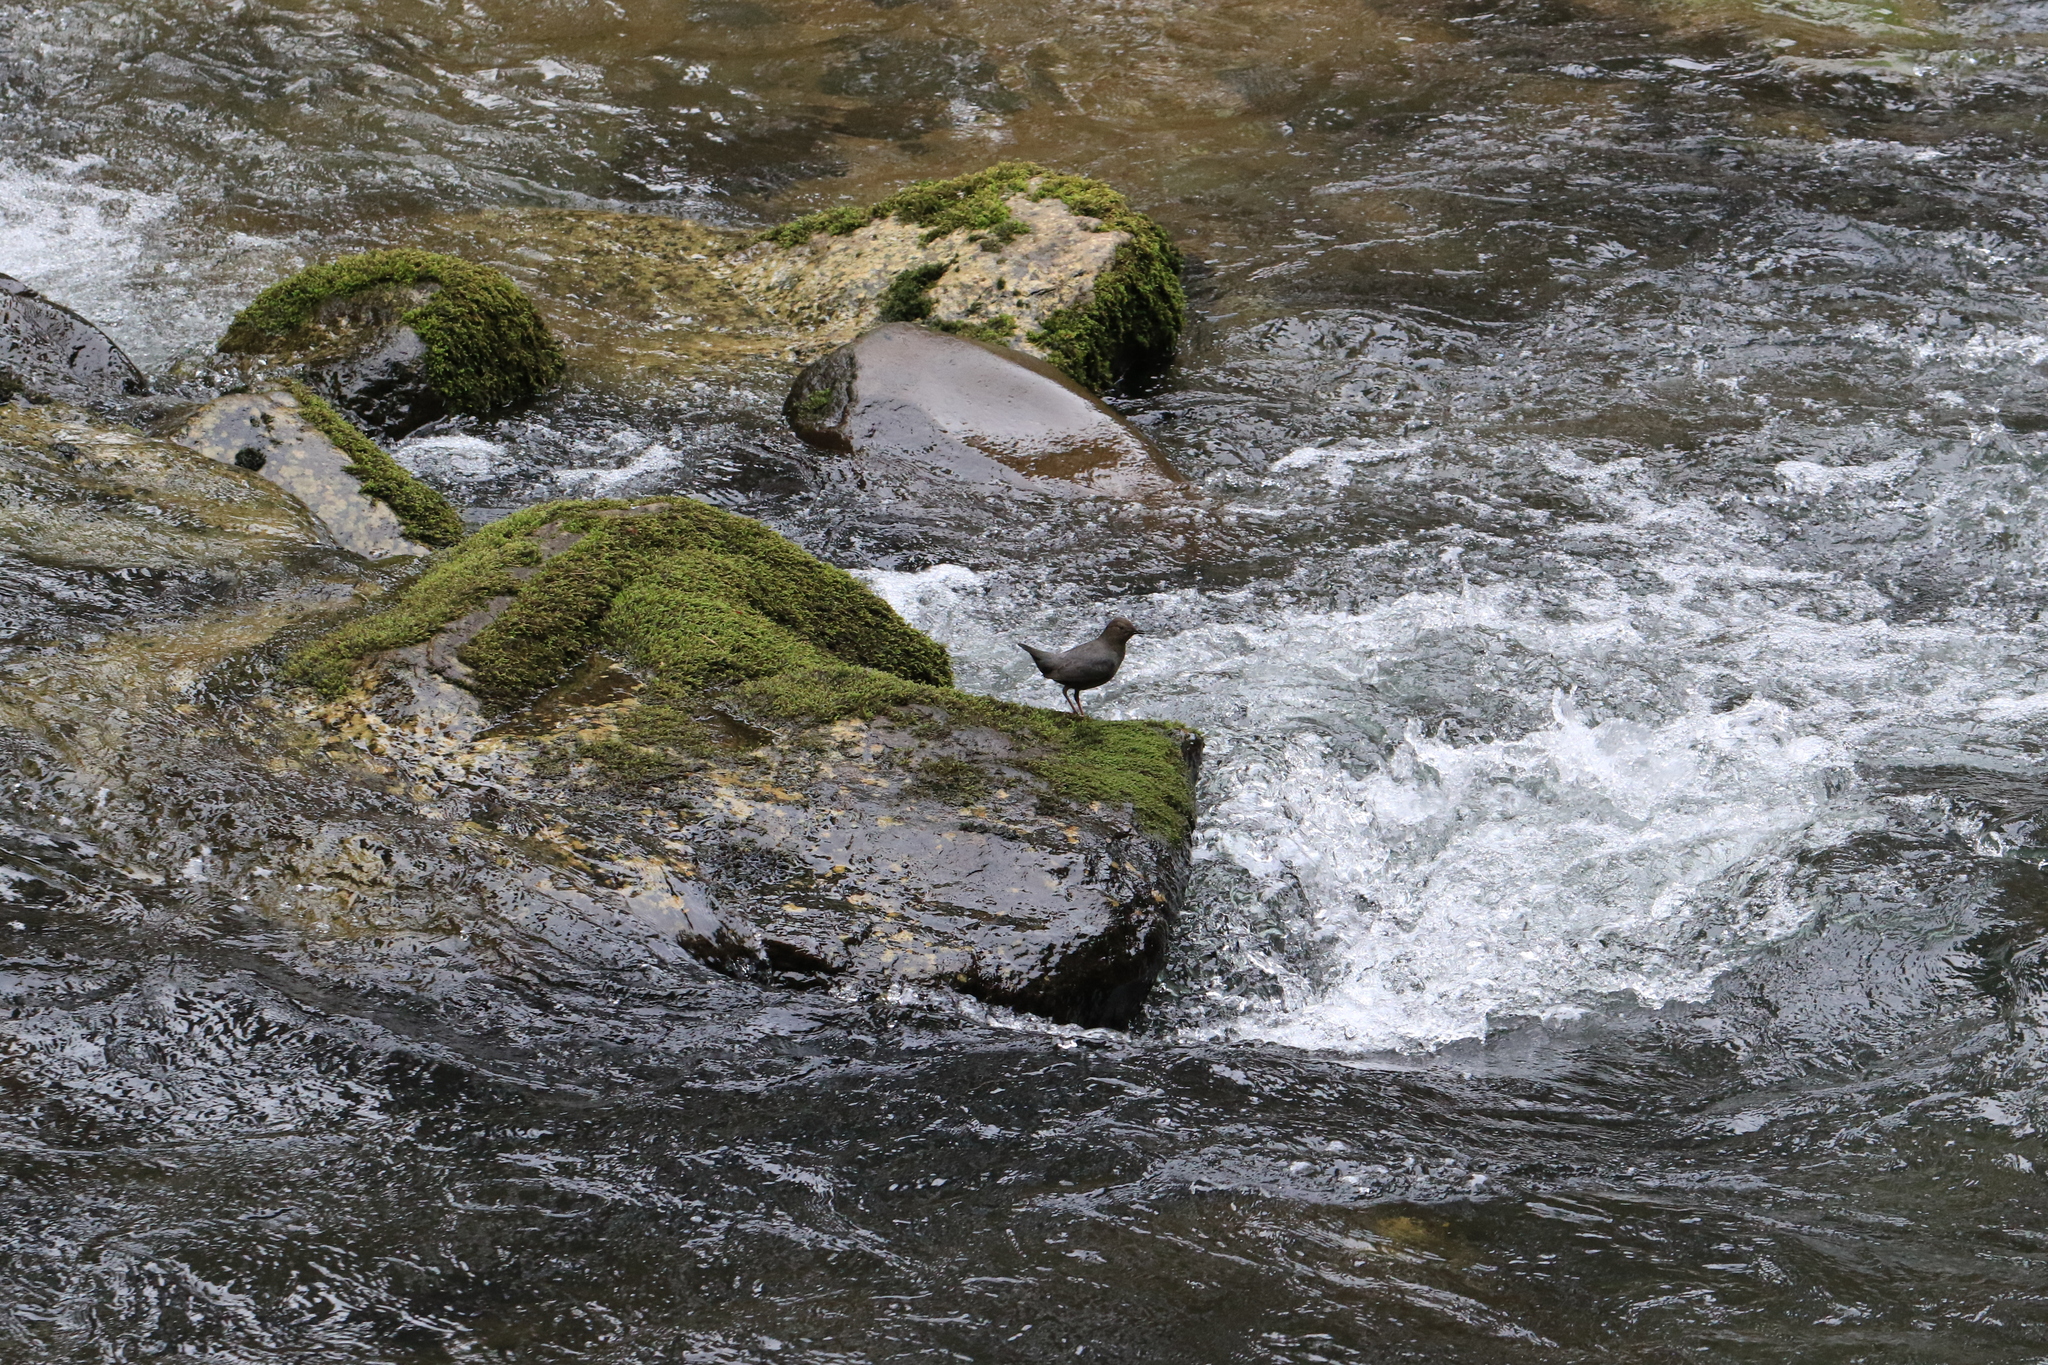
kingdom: Animalia
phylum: Chordata
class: Aves
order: Passeriformes
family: Cinclidae
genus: Cinclus
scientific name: Cinclus mexicanus
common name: American dipper
